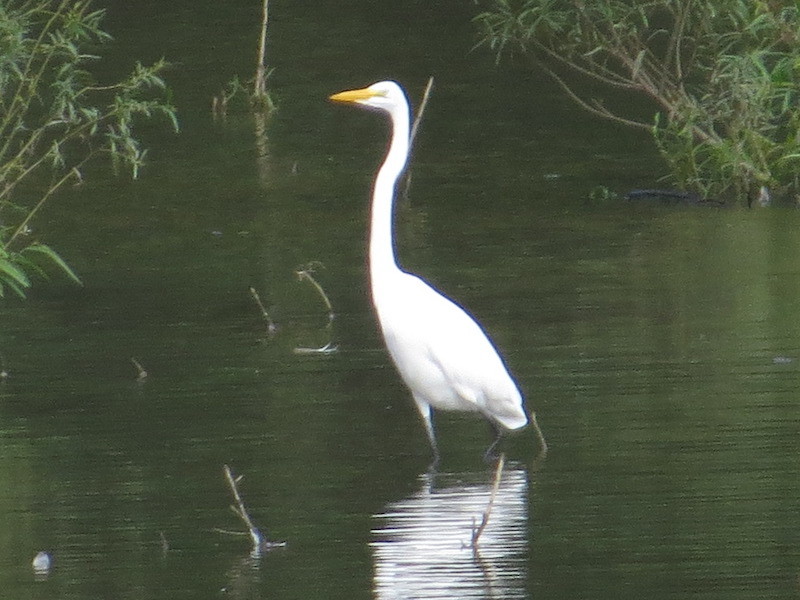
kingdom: Animalia
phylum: Chordata
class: Aves
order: Pelecaniformes
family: Ardeidae
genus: Ardea
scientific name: Ardea alba
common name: Great egret
